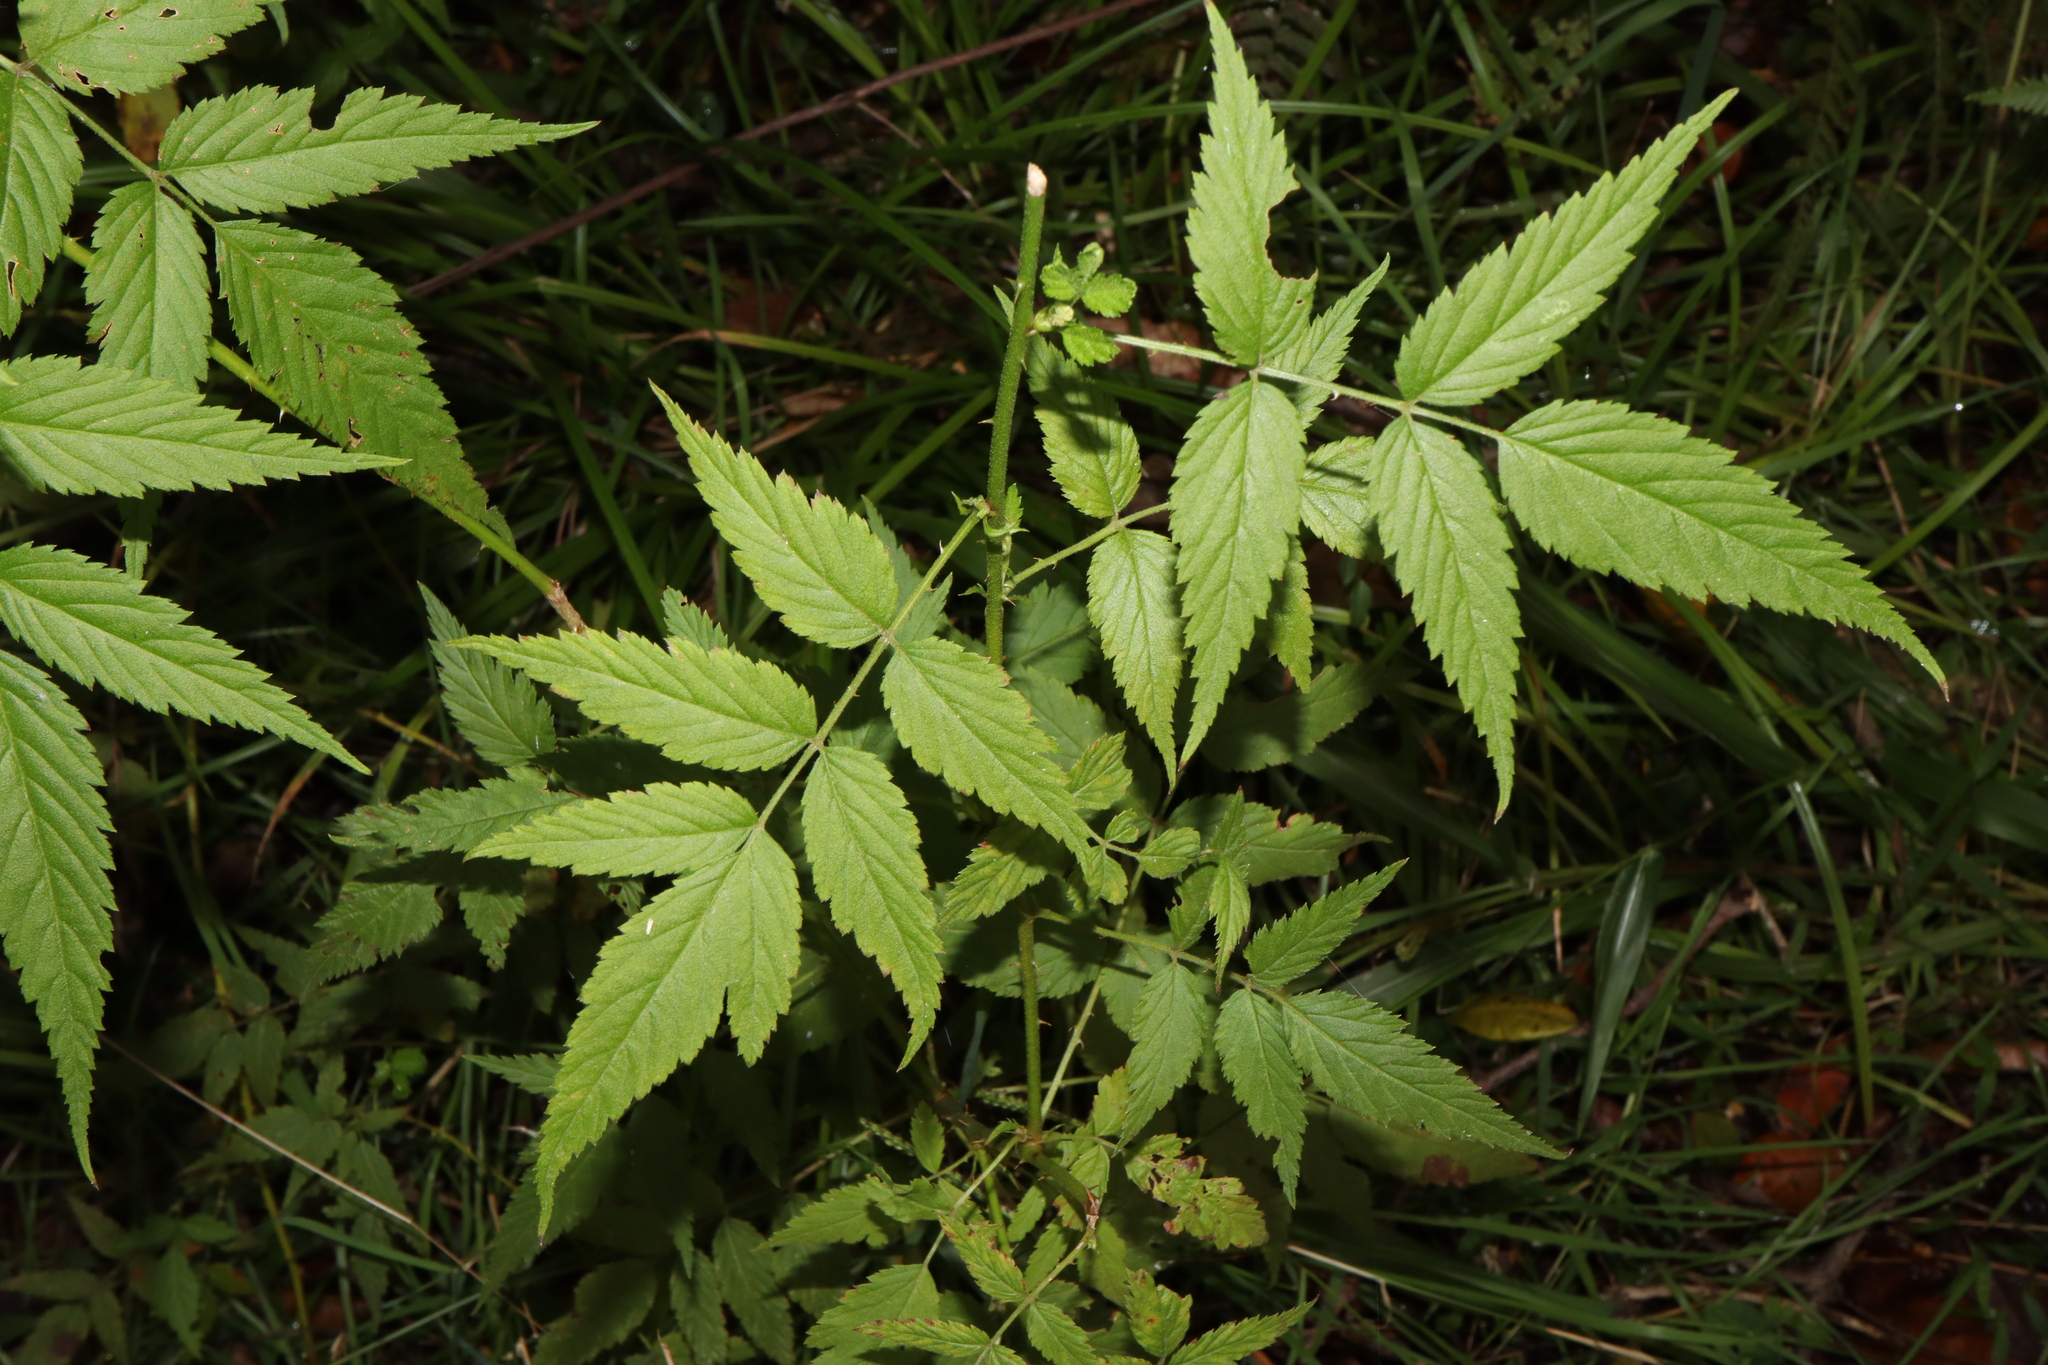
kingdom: Plantae
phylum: Tracheophyta
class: Magnoliopsida
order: Rosales
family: Rosaceae
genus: Rubus
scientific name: Rubus rosifolius
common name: Roseleaf raspberry
